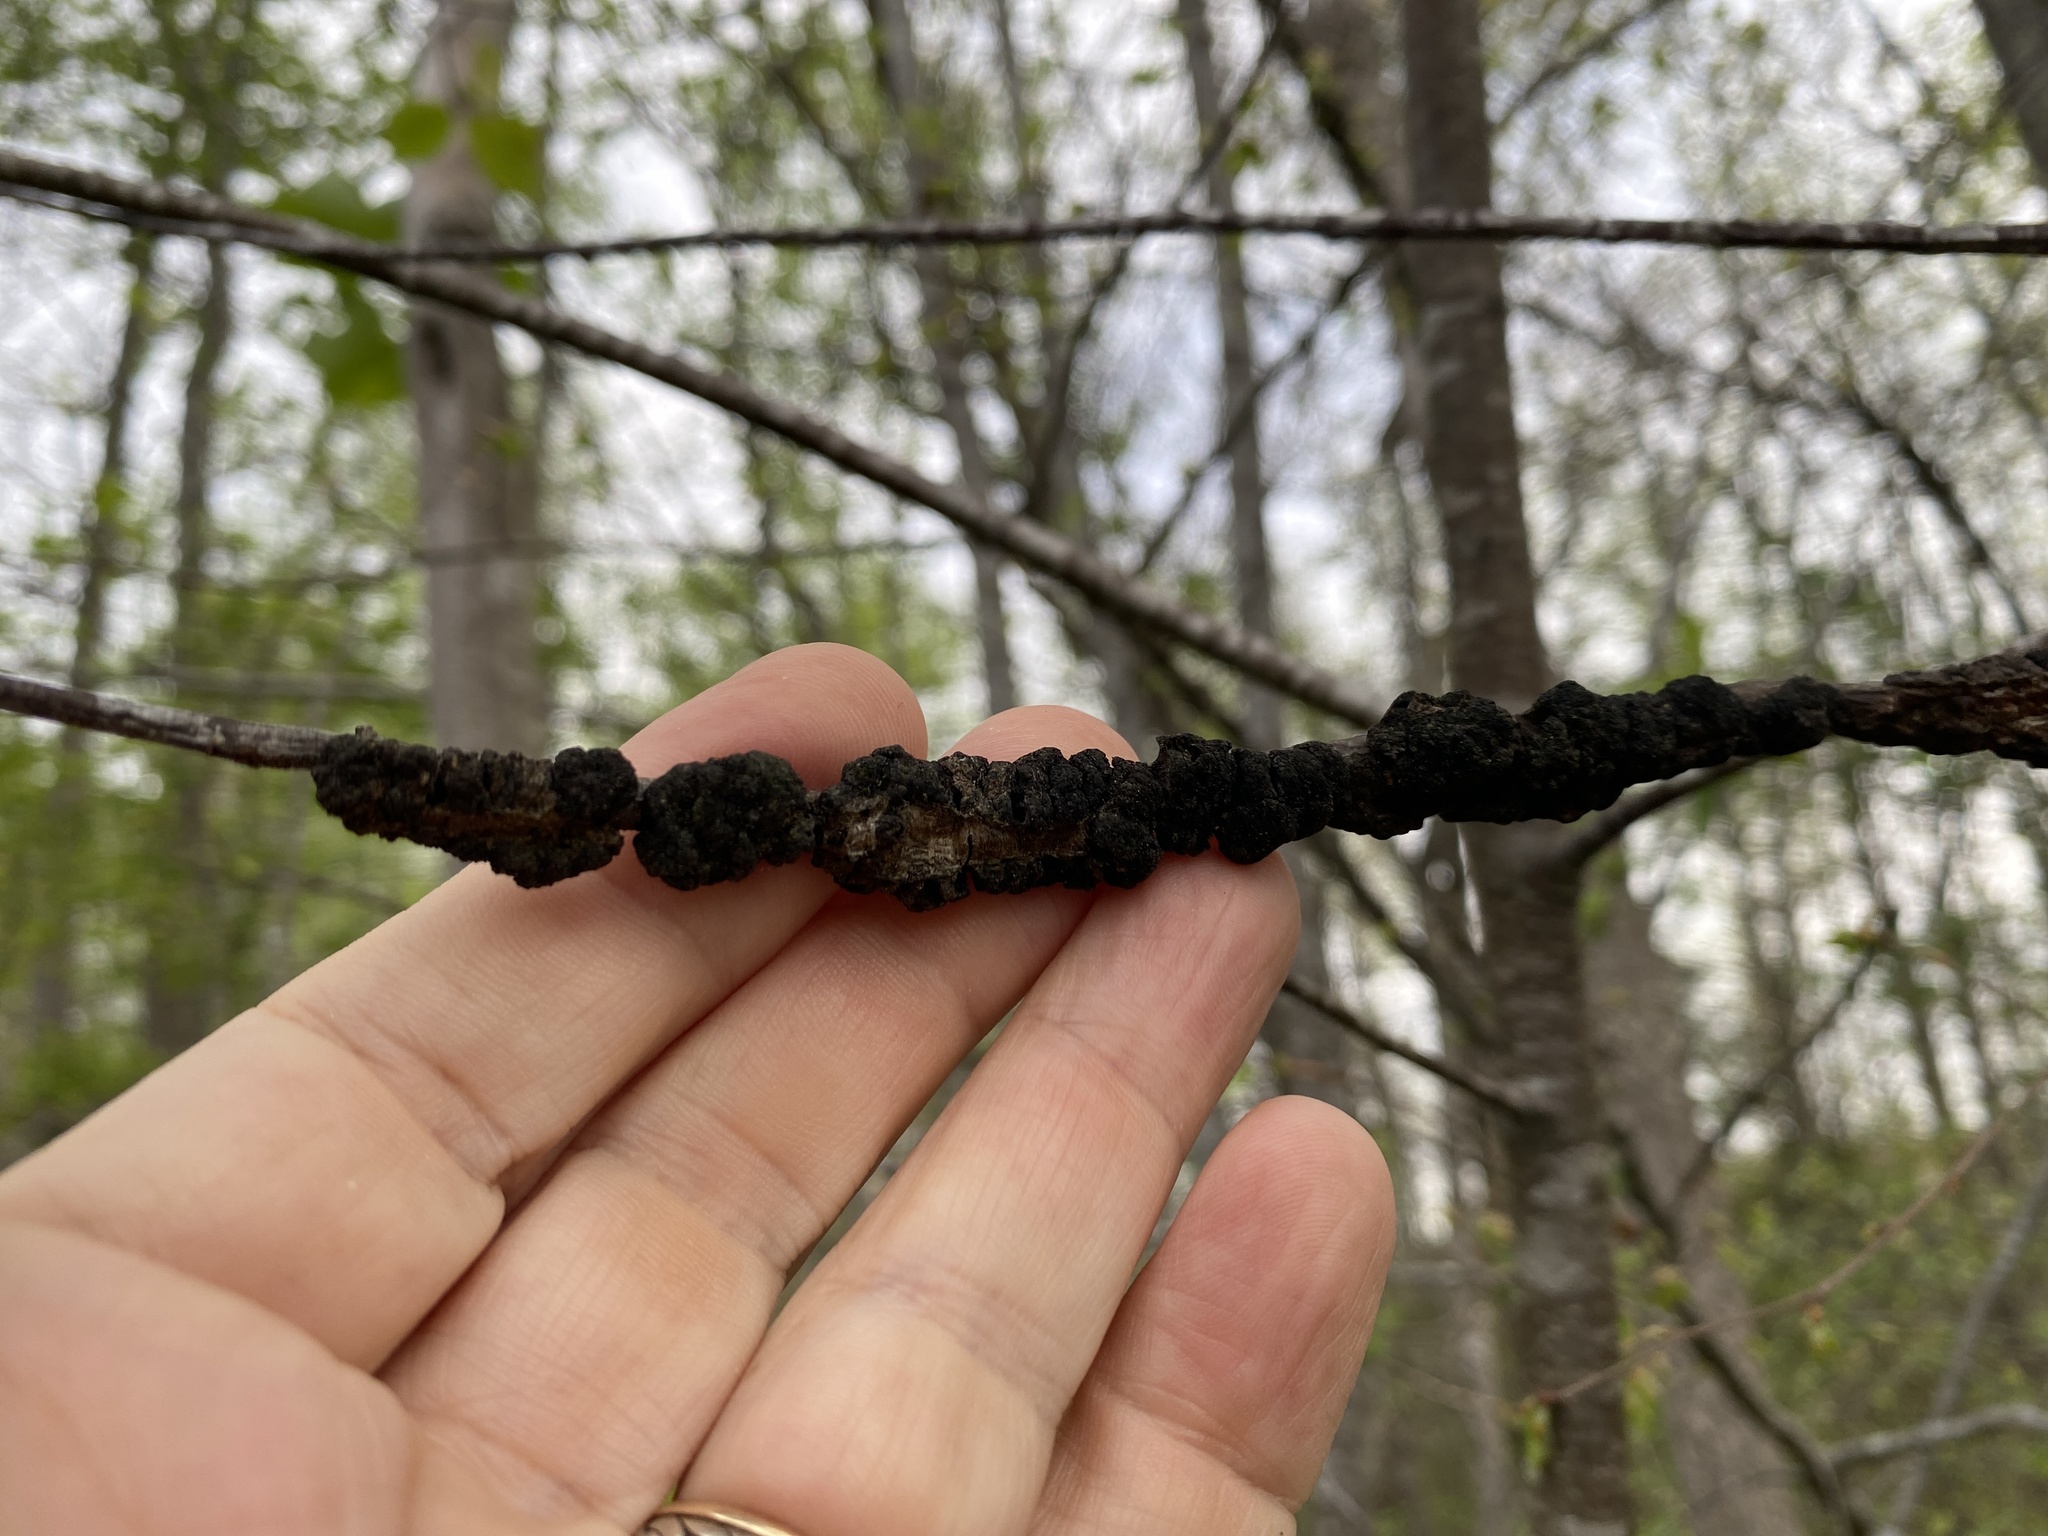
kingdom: Fungi
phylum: Ascomycota
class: Dothideomycetes
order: Venturiales
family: Venturiaceae
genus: Apiosporina
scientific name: Apiosporina morbosa
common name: Black knot
